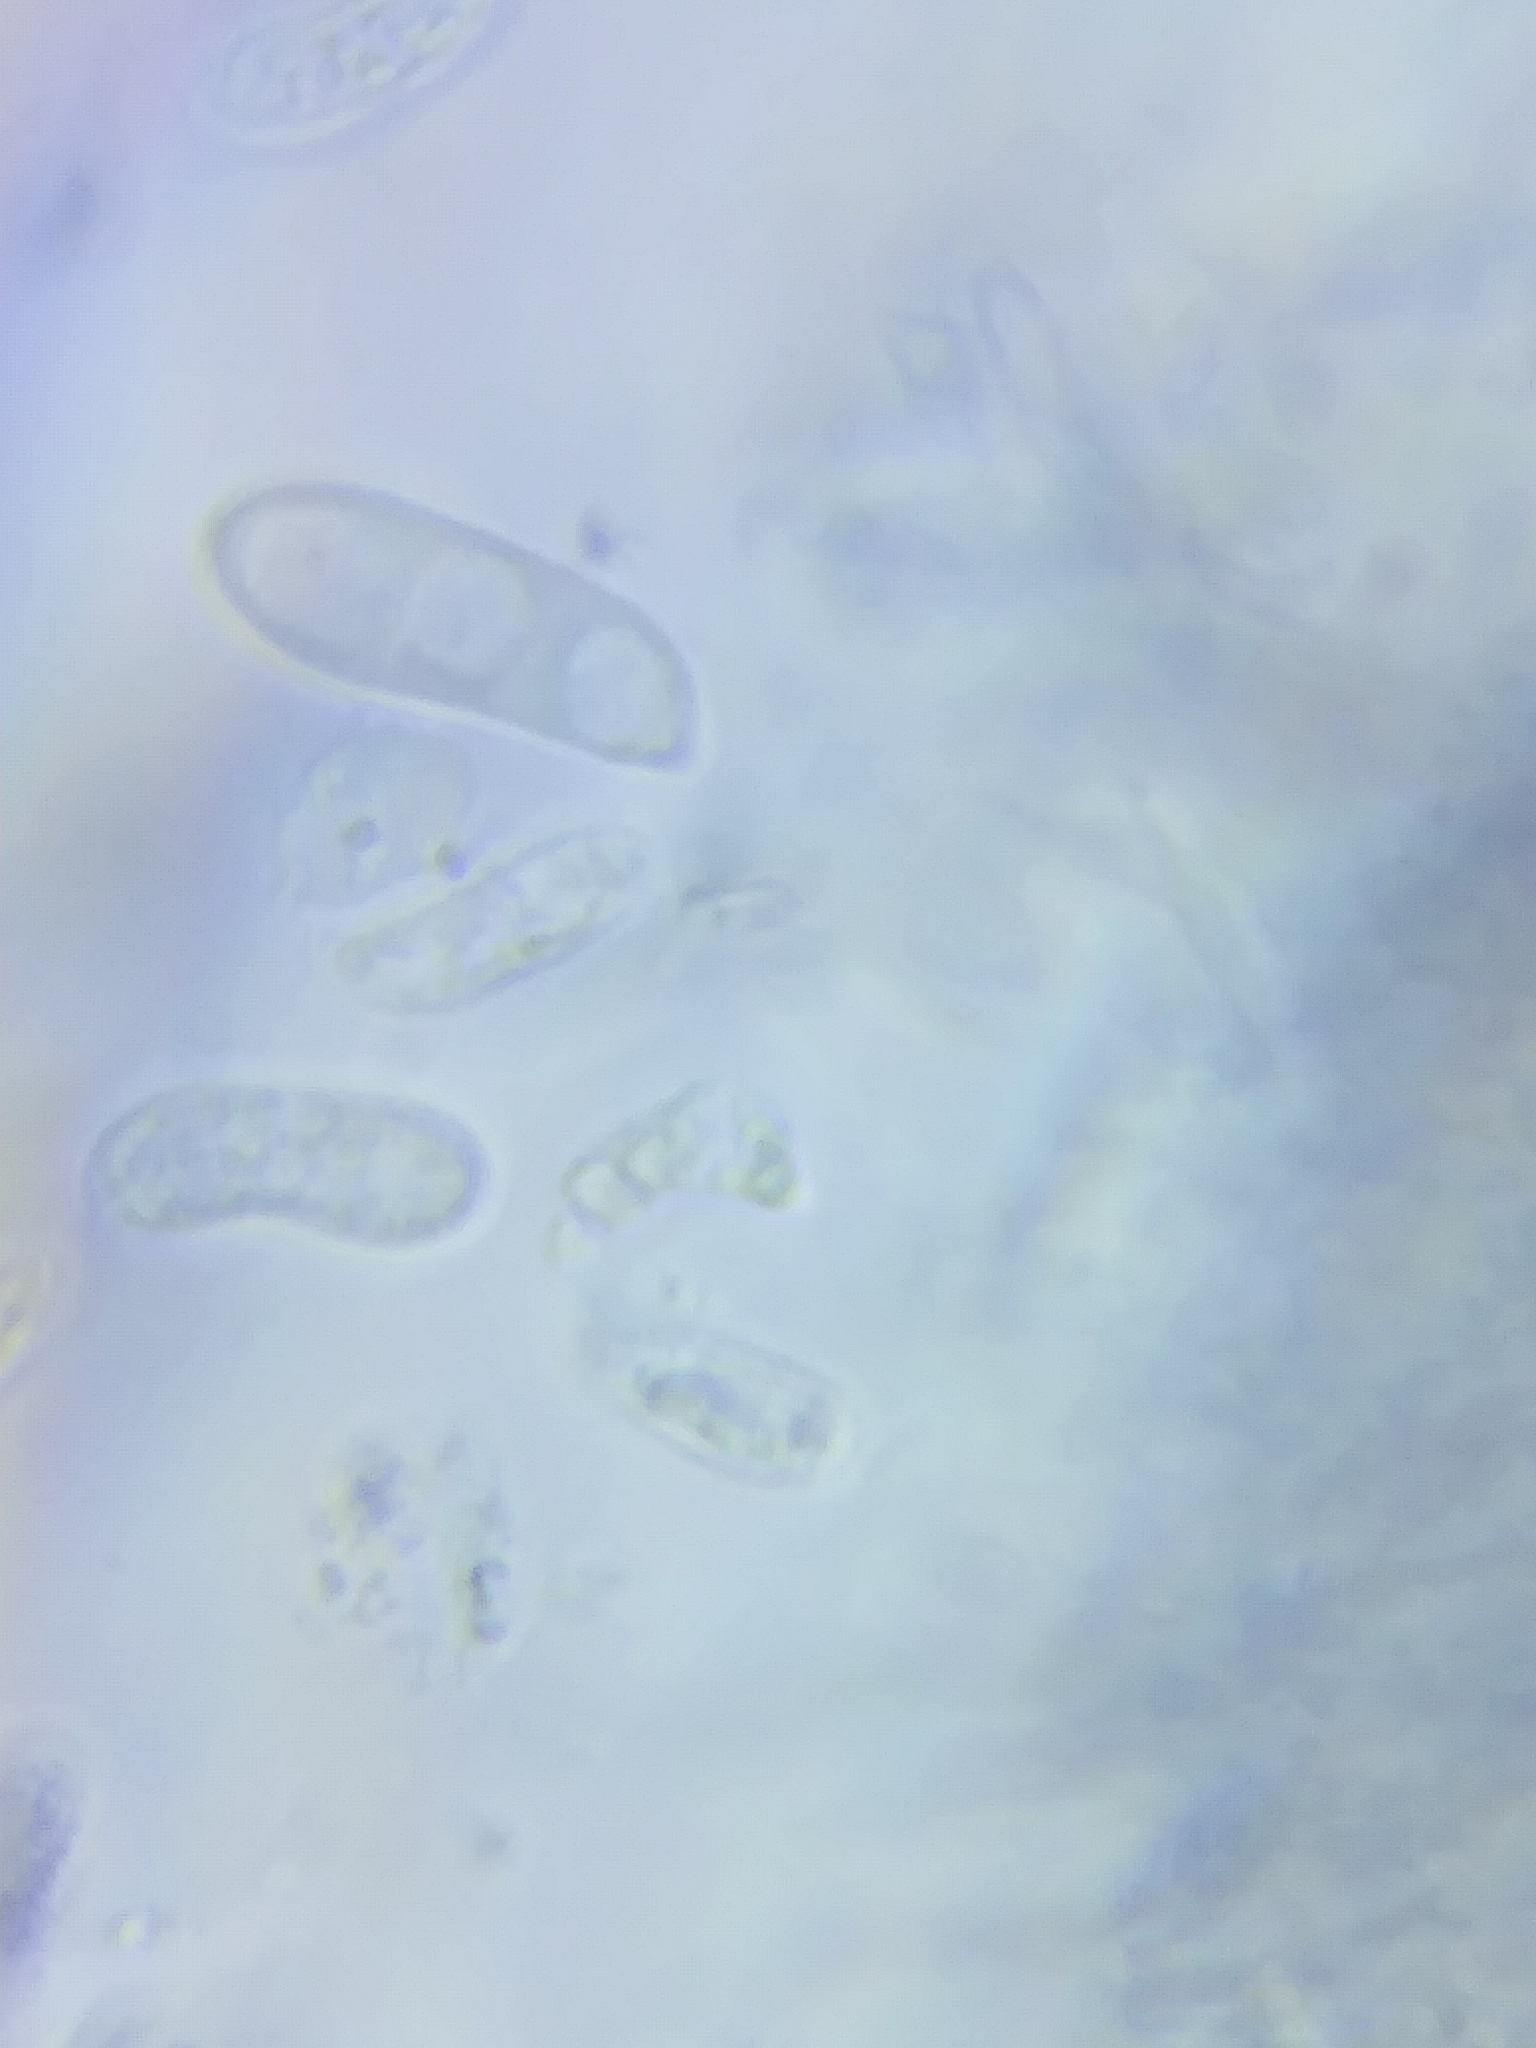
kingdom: Fungi
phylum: Basidiomycota
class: Dacrymycetes
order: Dacrymycetales
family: Dacrymycetaceae
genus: Dacrymyces
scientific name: Dacrymyces minor
